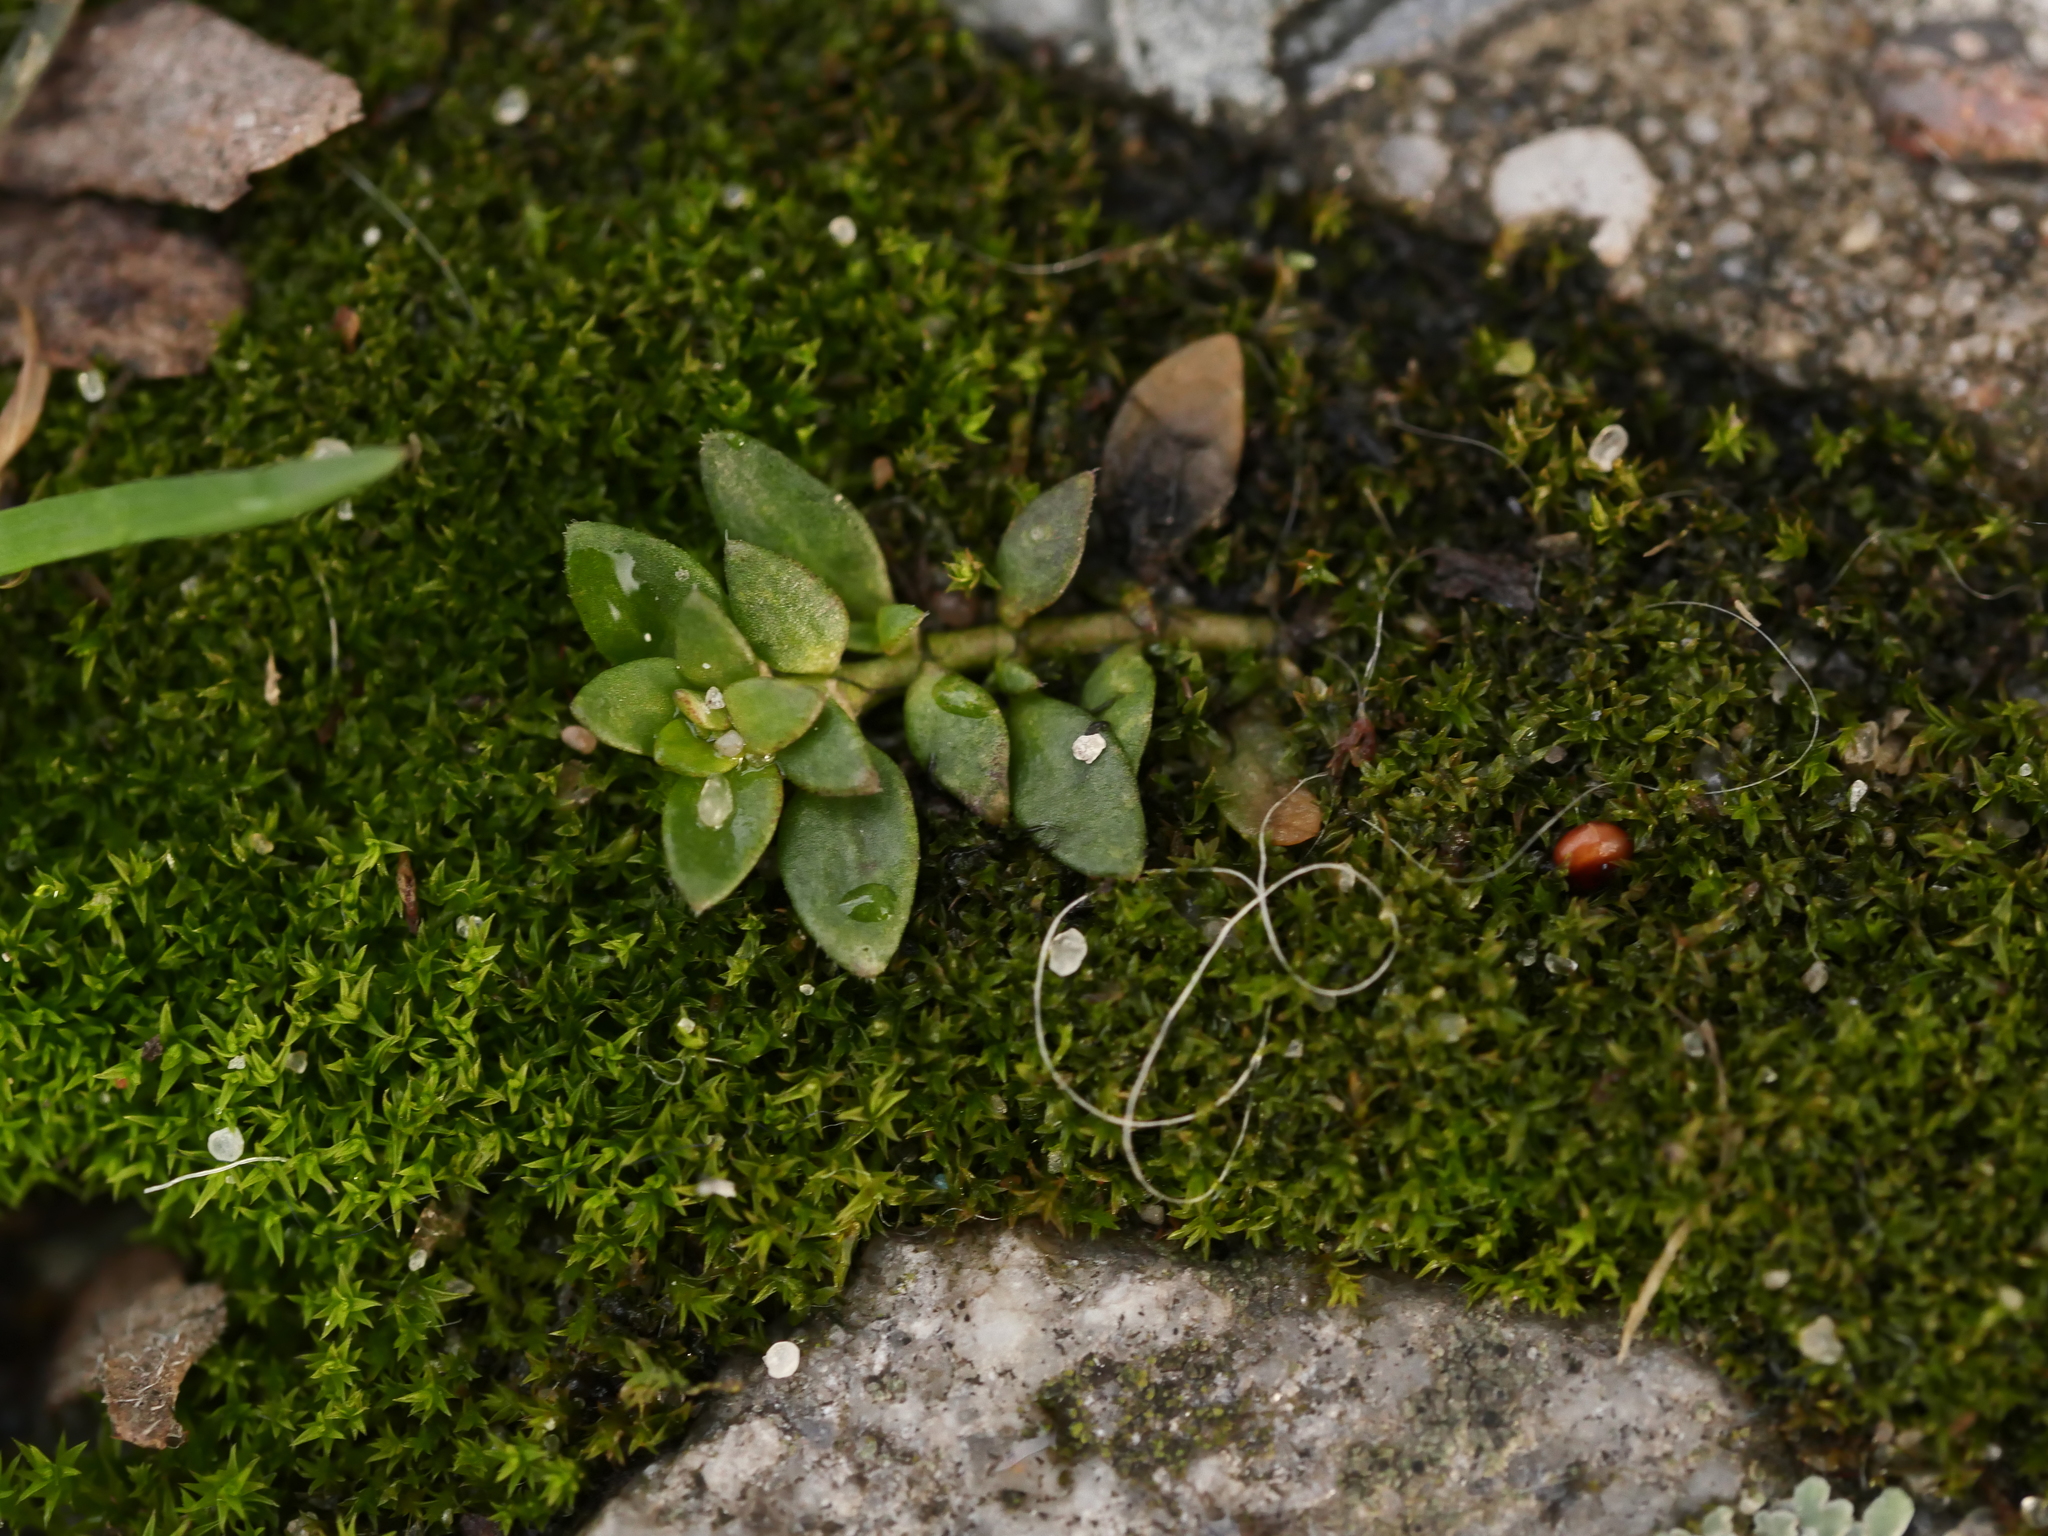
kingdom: Plantae
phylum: Tracheophyta
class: Magnoliopsida
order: Caryophyllales
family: Caryophyllaceae
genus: Herniaria
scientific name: Herniaria glabra
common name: Smooth rupturewort
